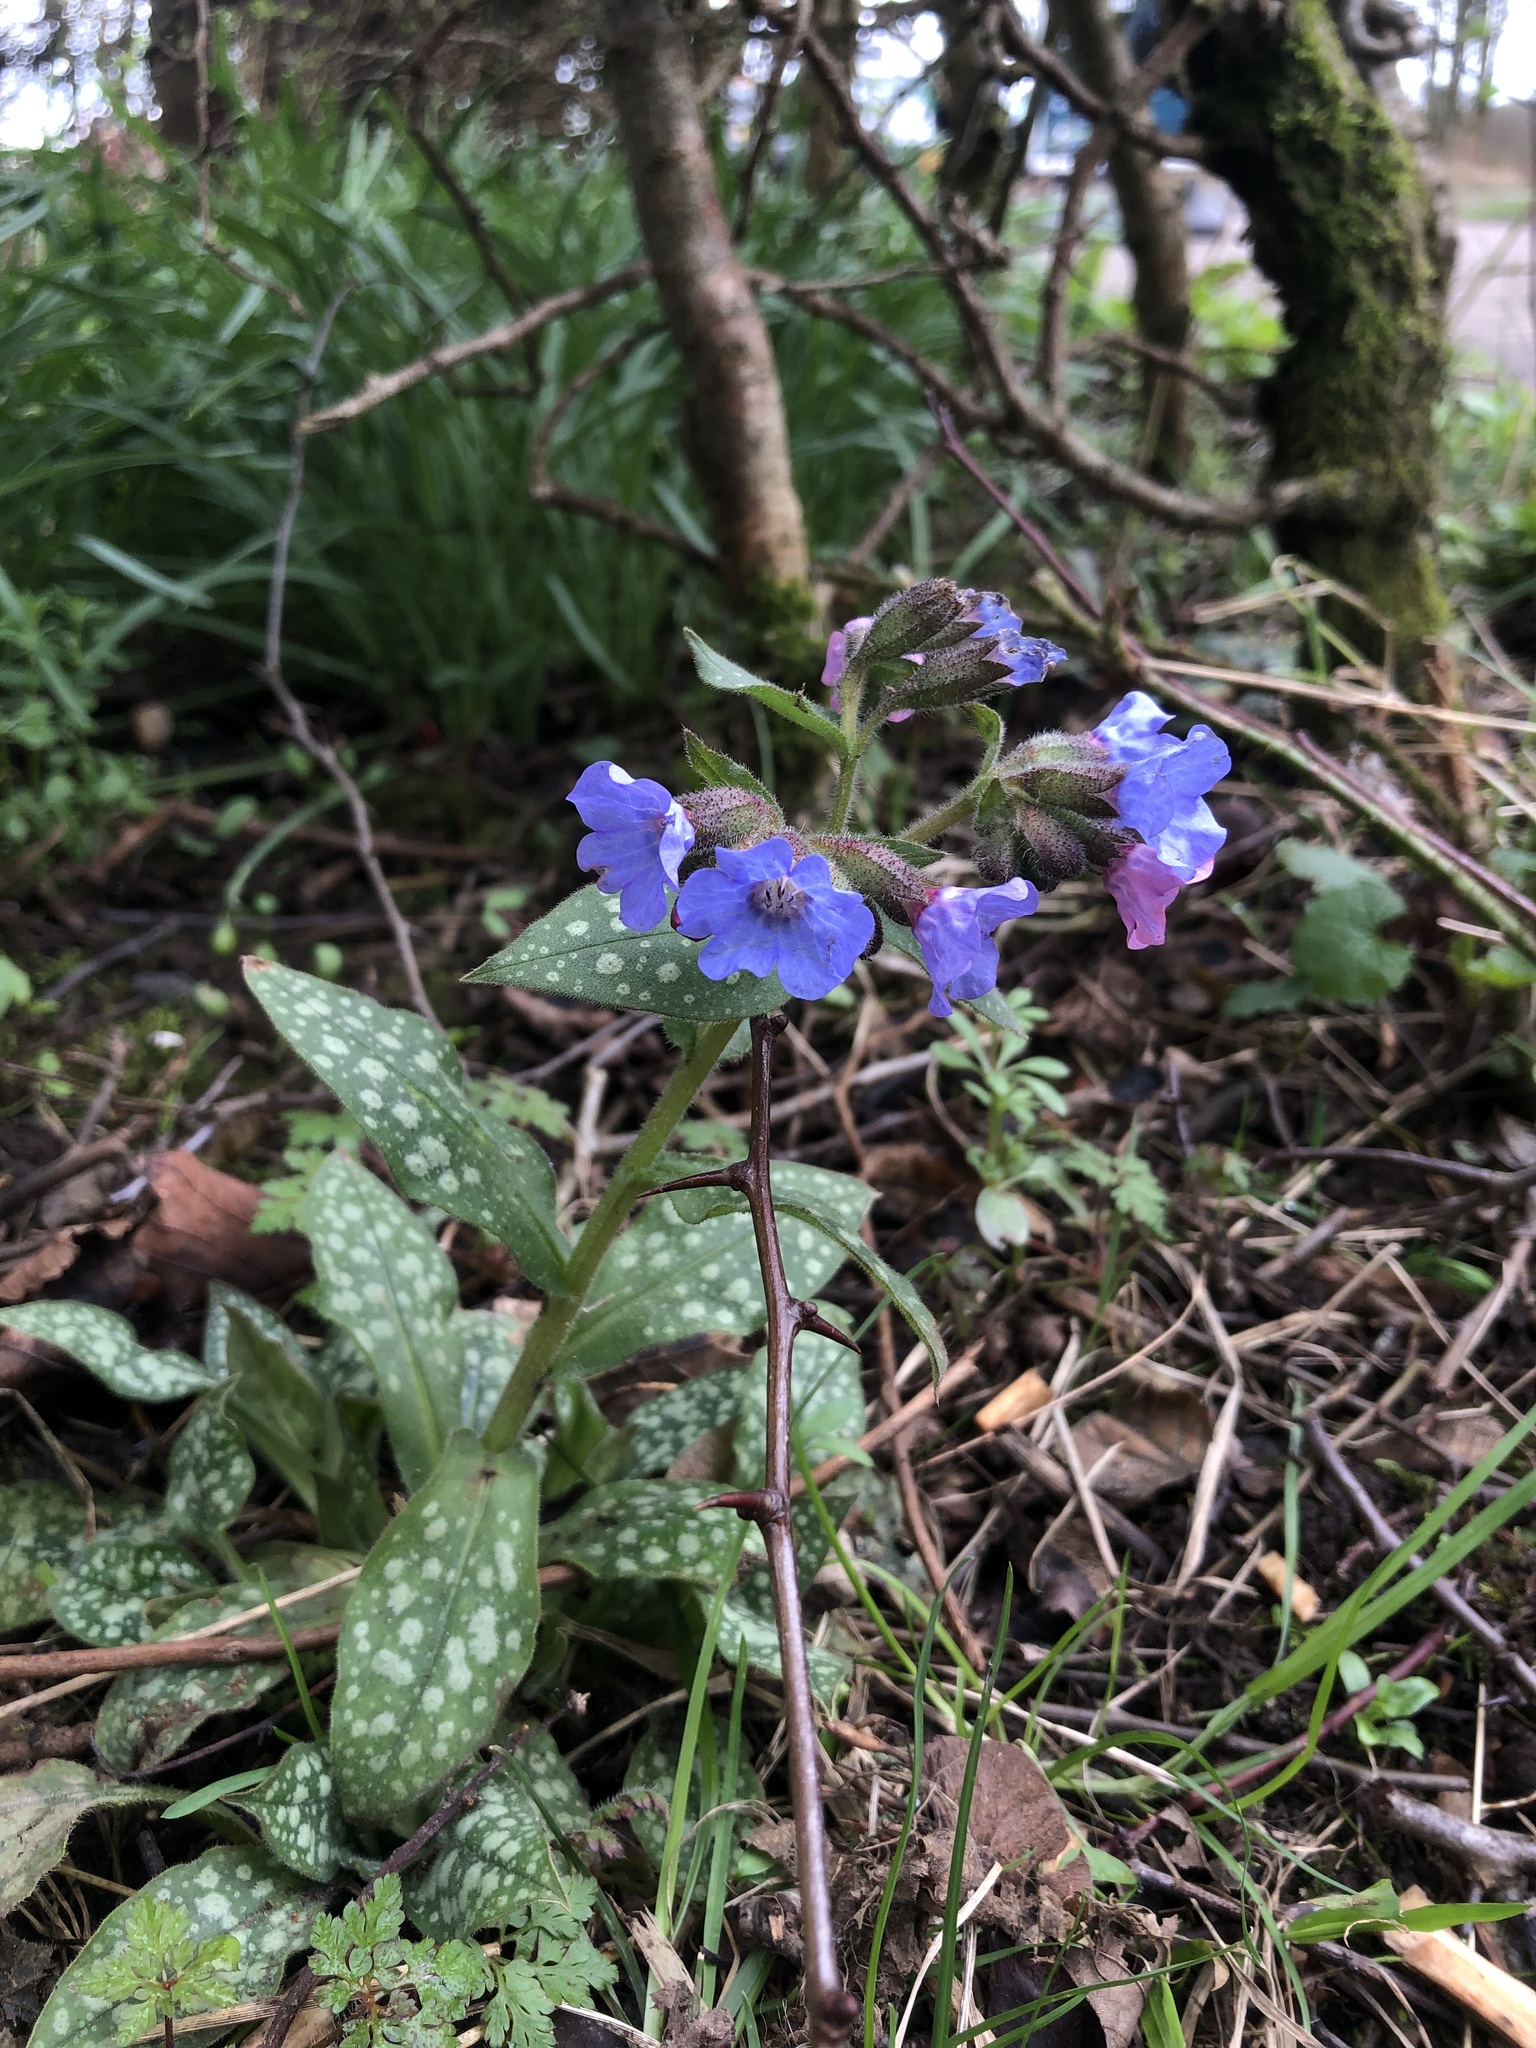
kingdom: Plantae
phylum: Tracheophyta
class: Magnoliopsida
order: Boraginales
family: Boraginaceae
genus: Pulmonaria
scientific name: Pulmonaria officinalis
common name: Lungwort
